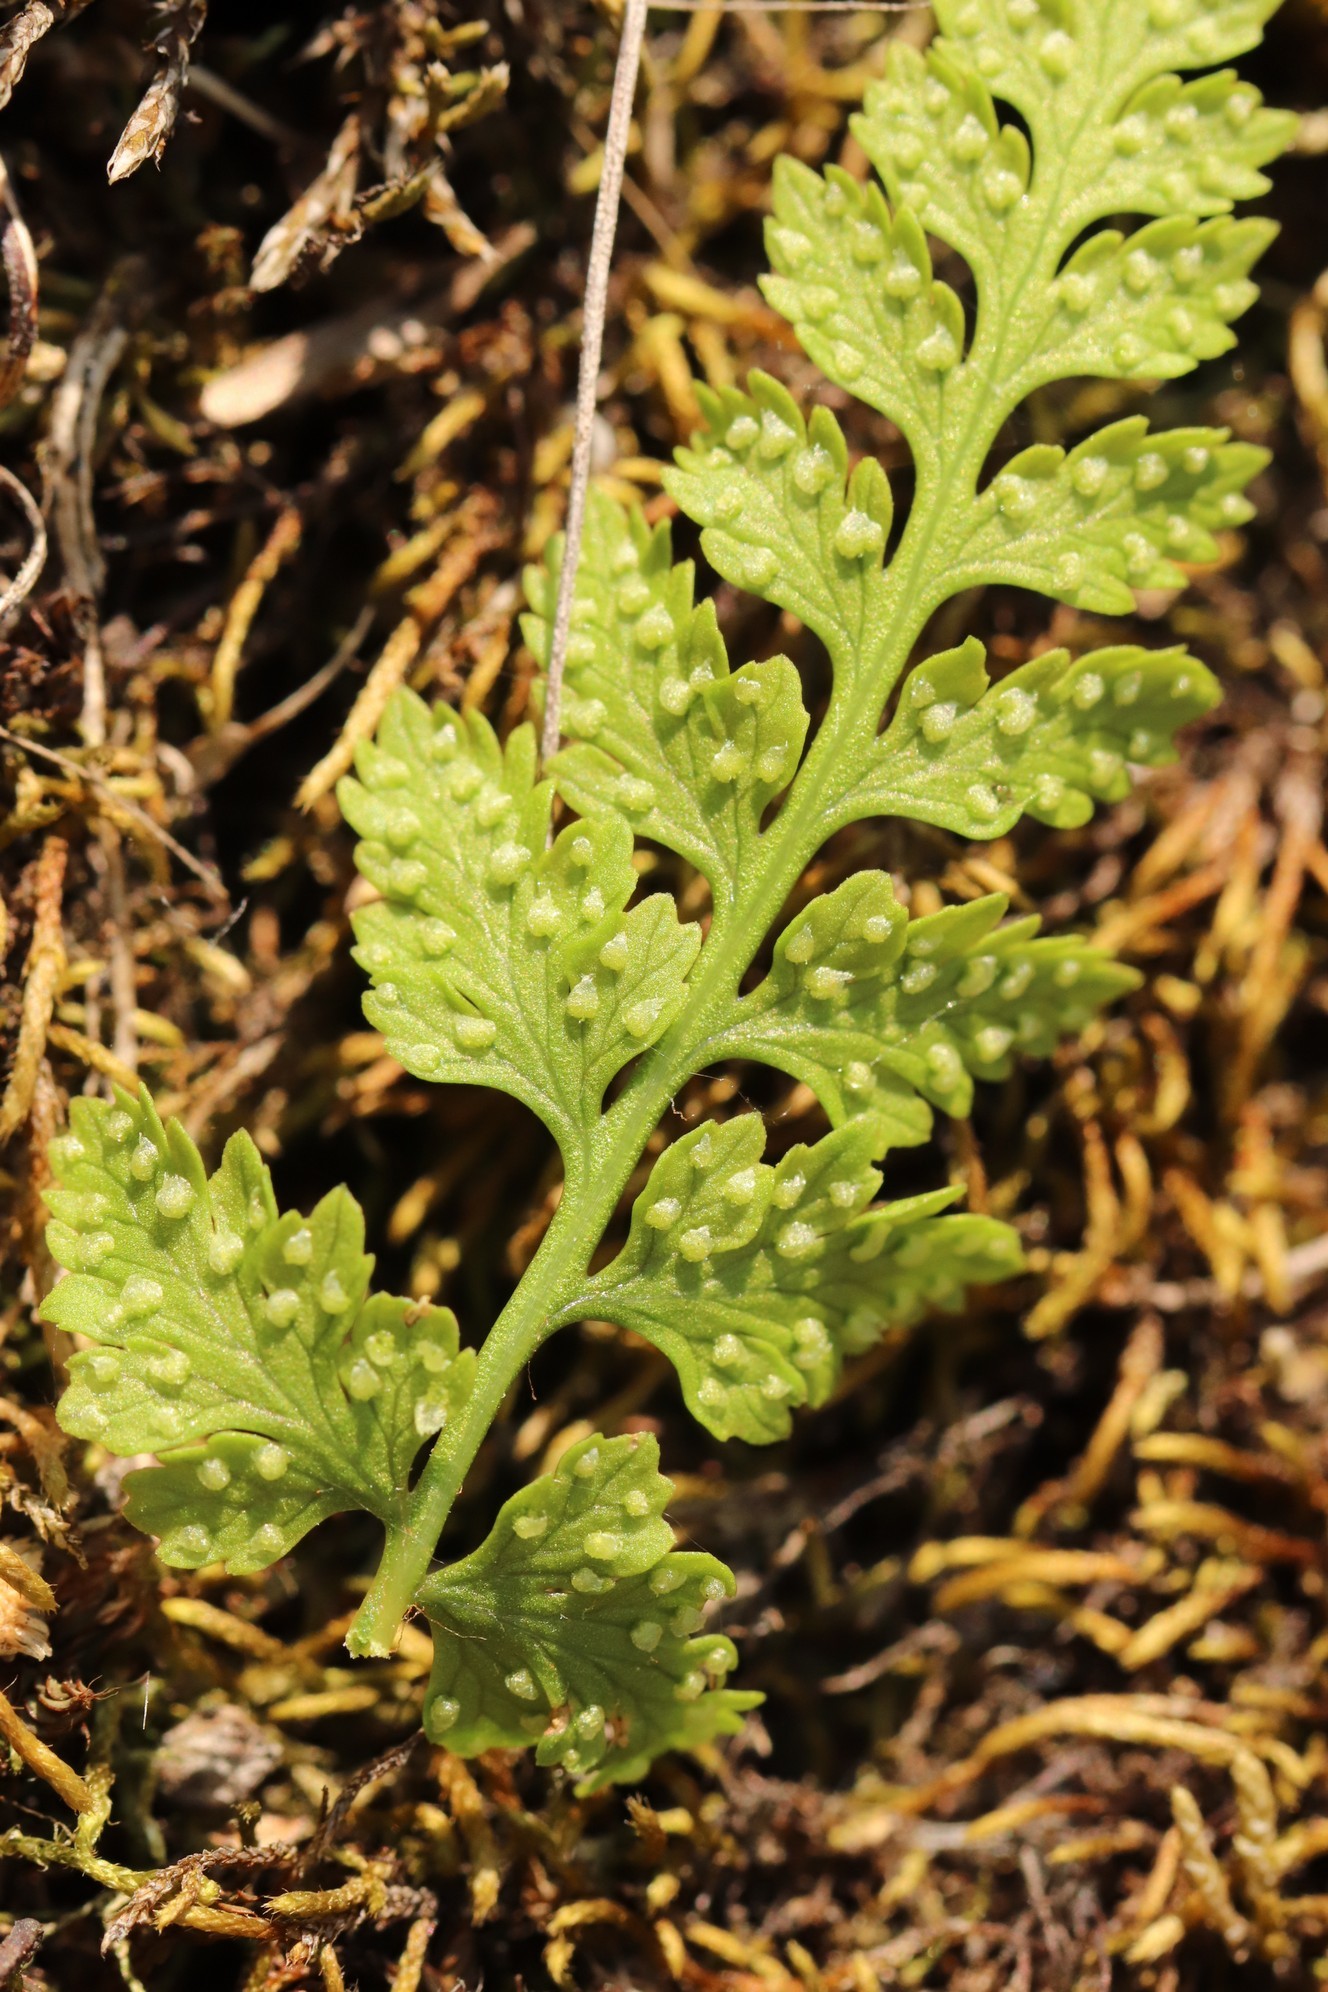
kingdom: Plantae
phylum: Tracheophyta
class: Polypodiopsida
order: Polypodiales
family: Cystopteridaceae
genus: Cystopteris
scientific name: Cystopteris fragilis
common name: Brittle bladder fern
